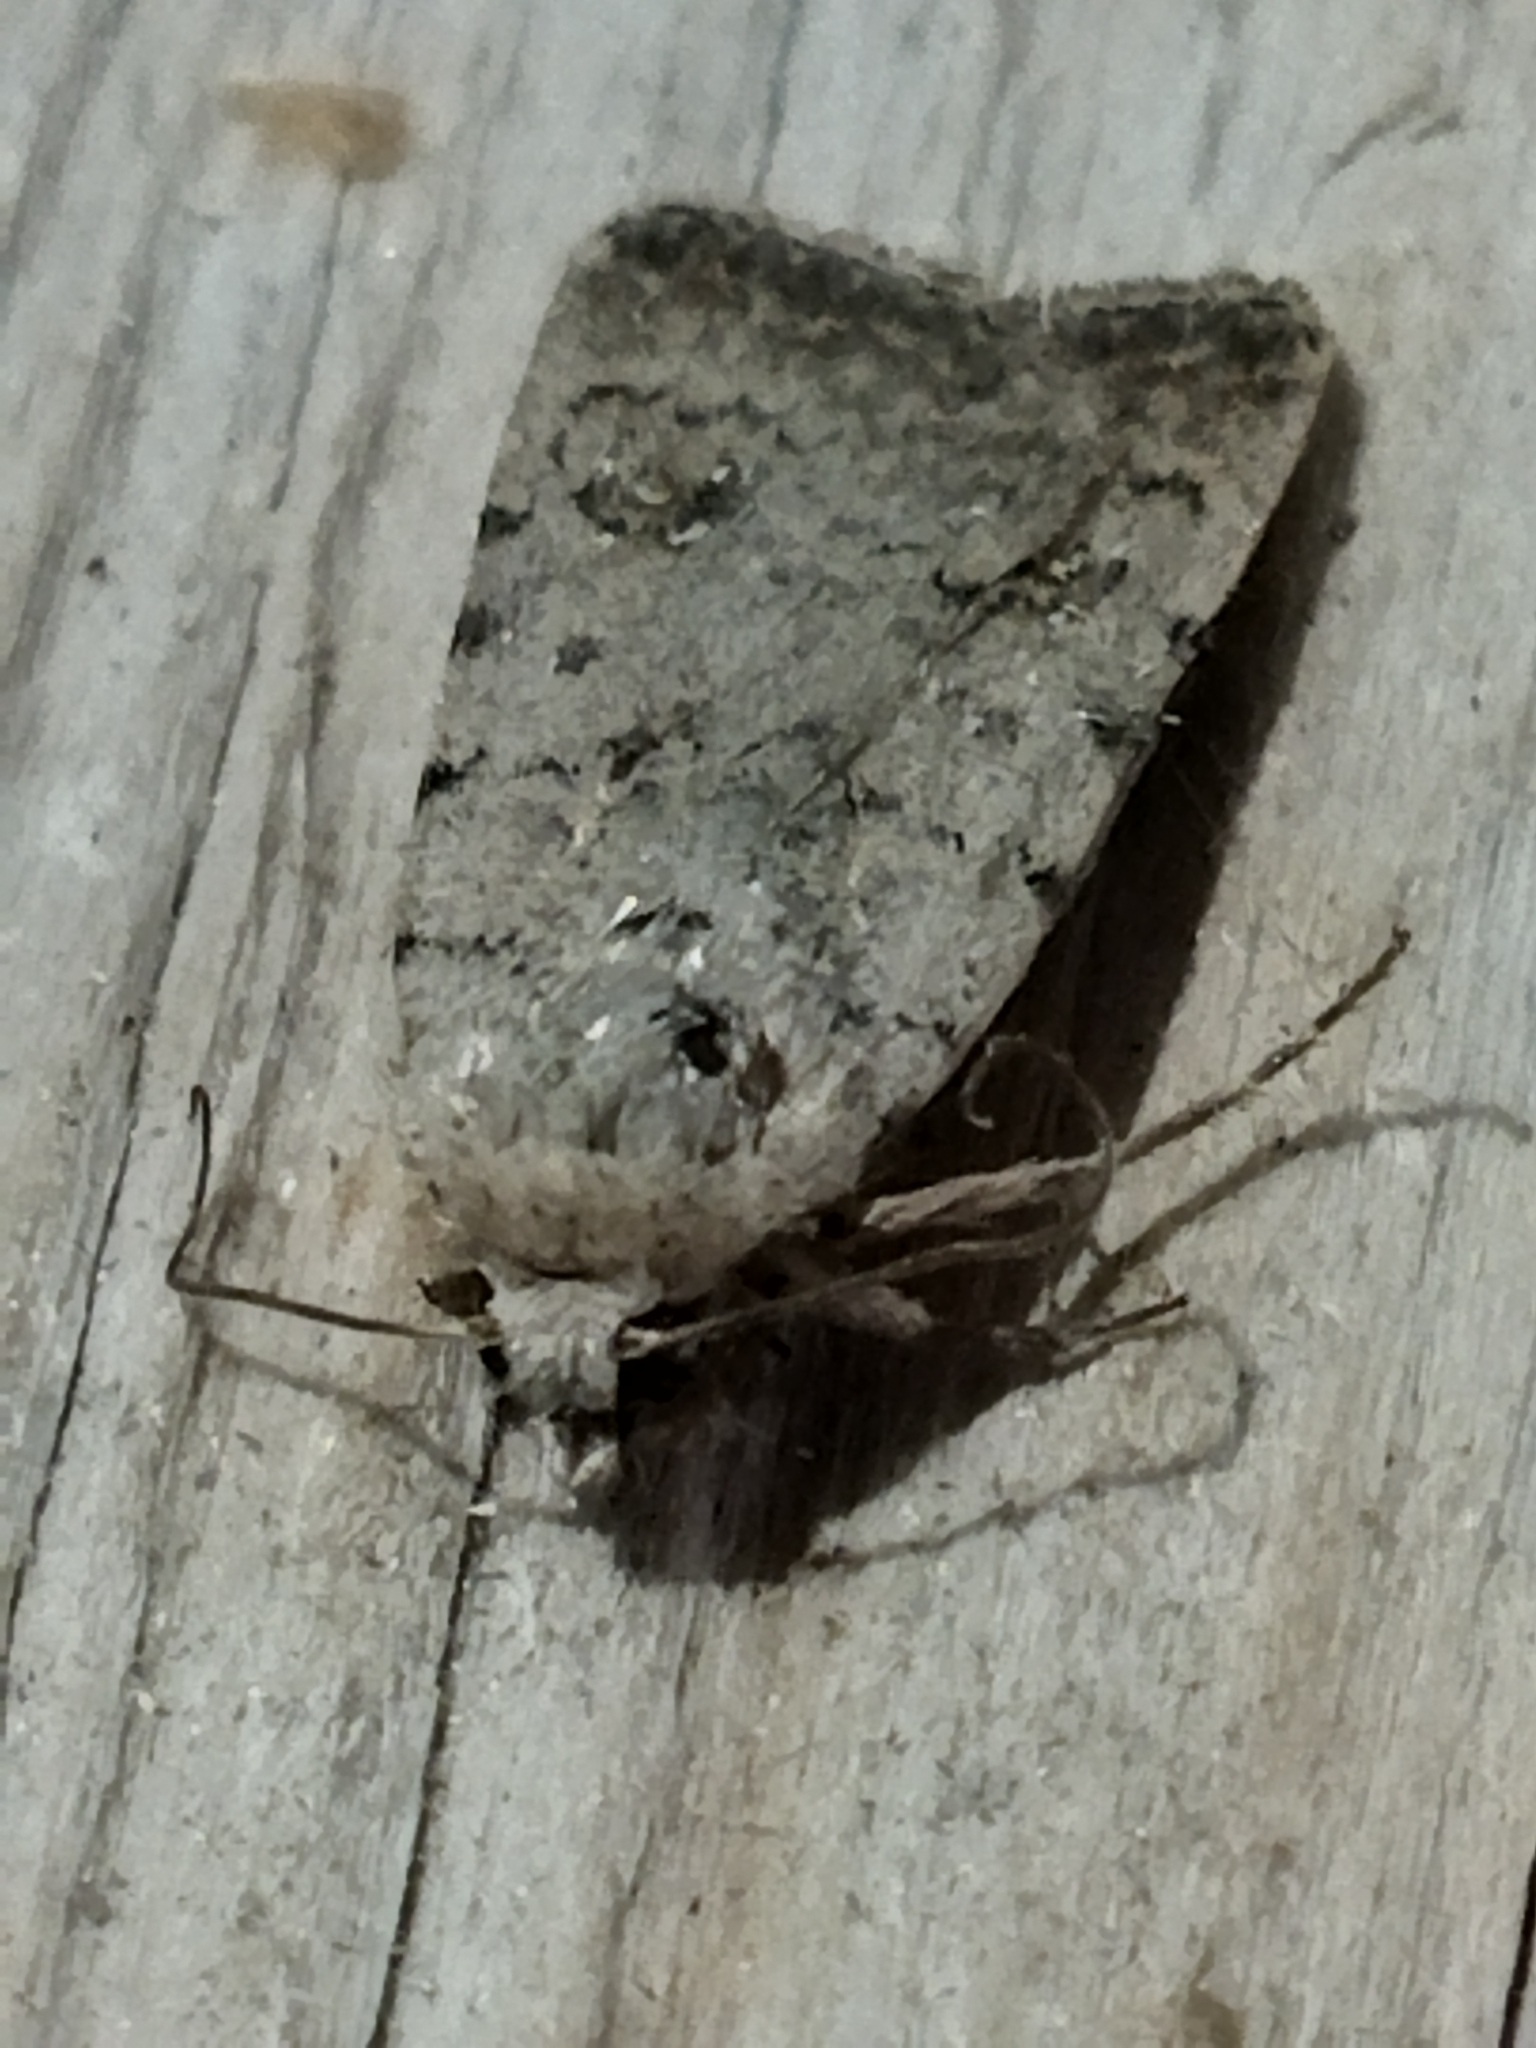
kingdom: Animalia
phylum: Arthropoda
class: Insecta
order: Lepidoptera
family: Noctuidae
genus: Caradrina
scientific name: Caradrina clavipalpis
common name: Pale mottled willow
